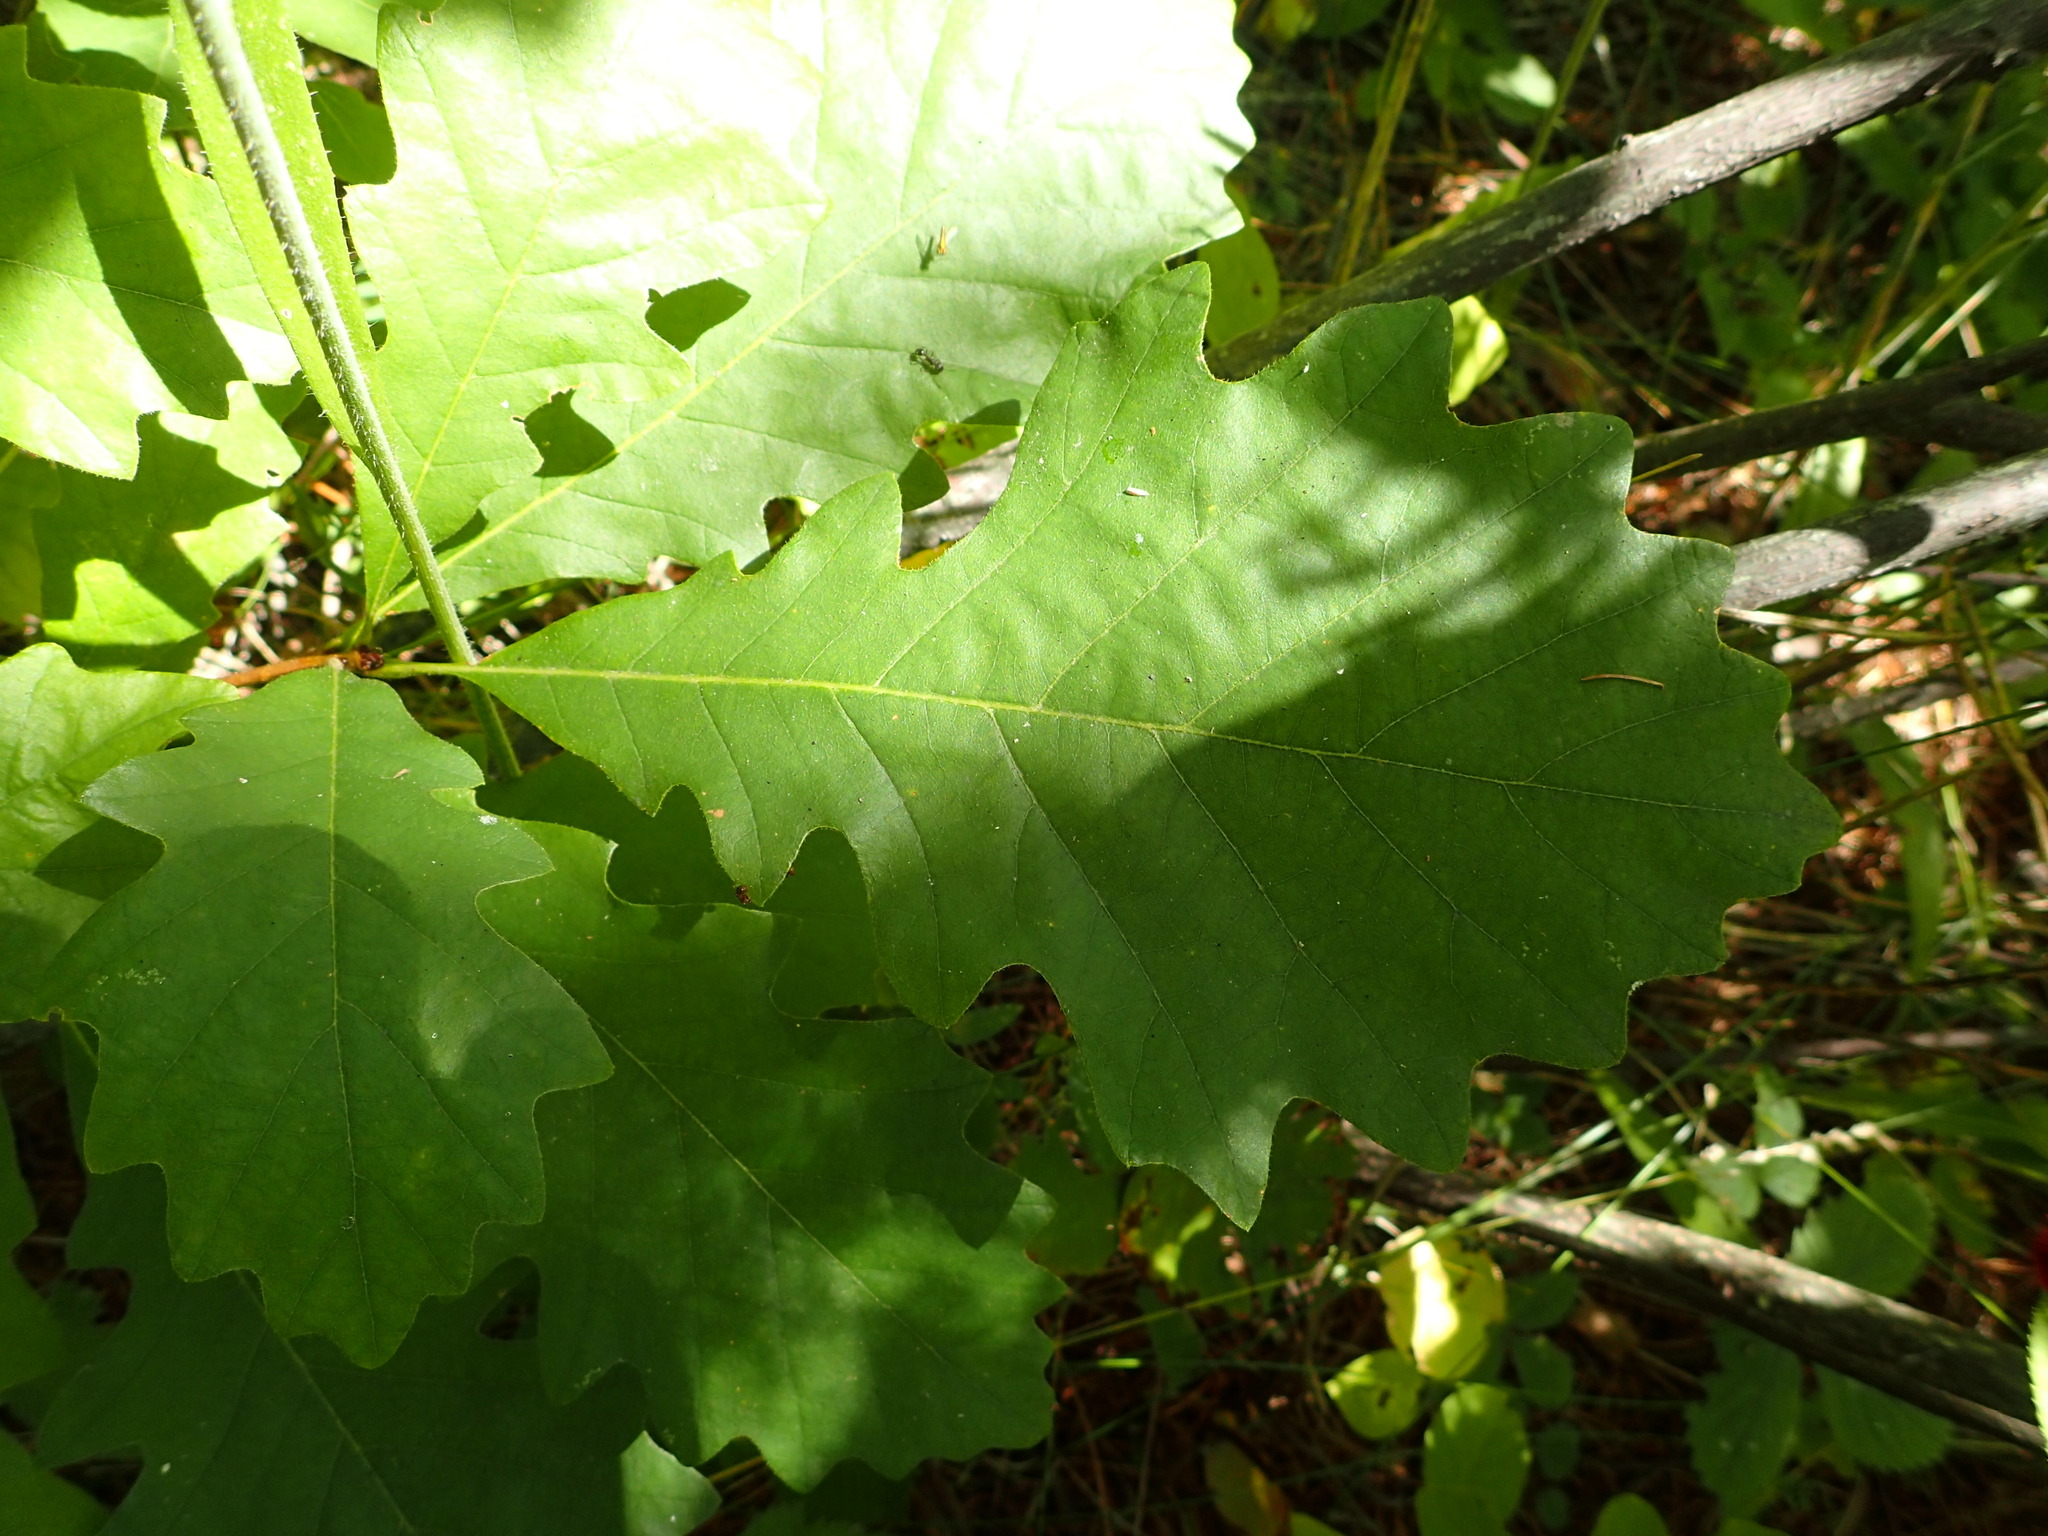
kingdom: Plantae
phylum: Tracheophyta
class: Magnoliopsida
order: Fagales
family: Fagaceae
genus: Quercus
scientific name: Quercus macrocarpa
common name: Bur oak
